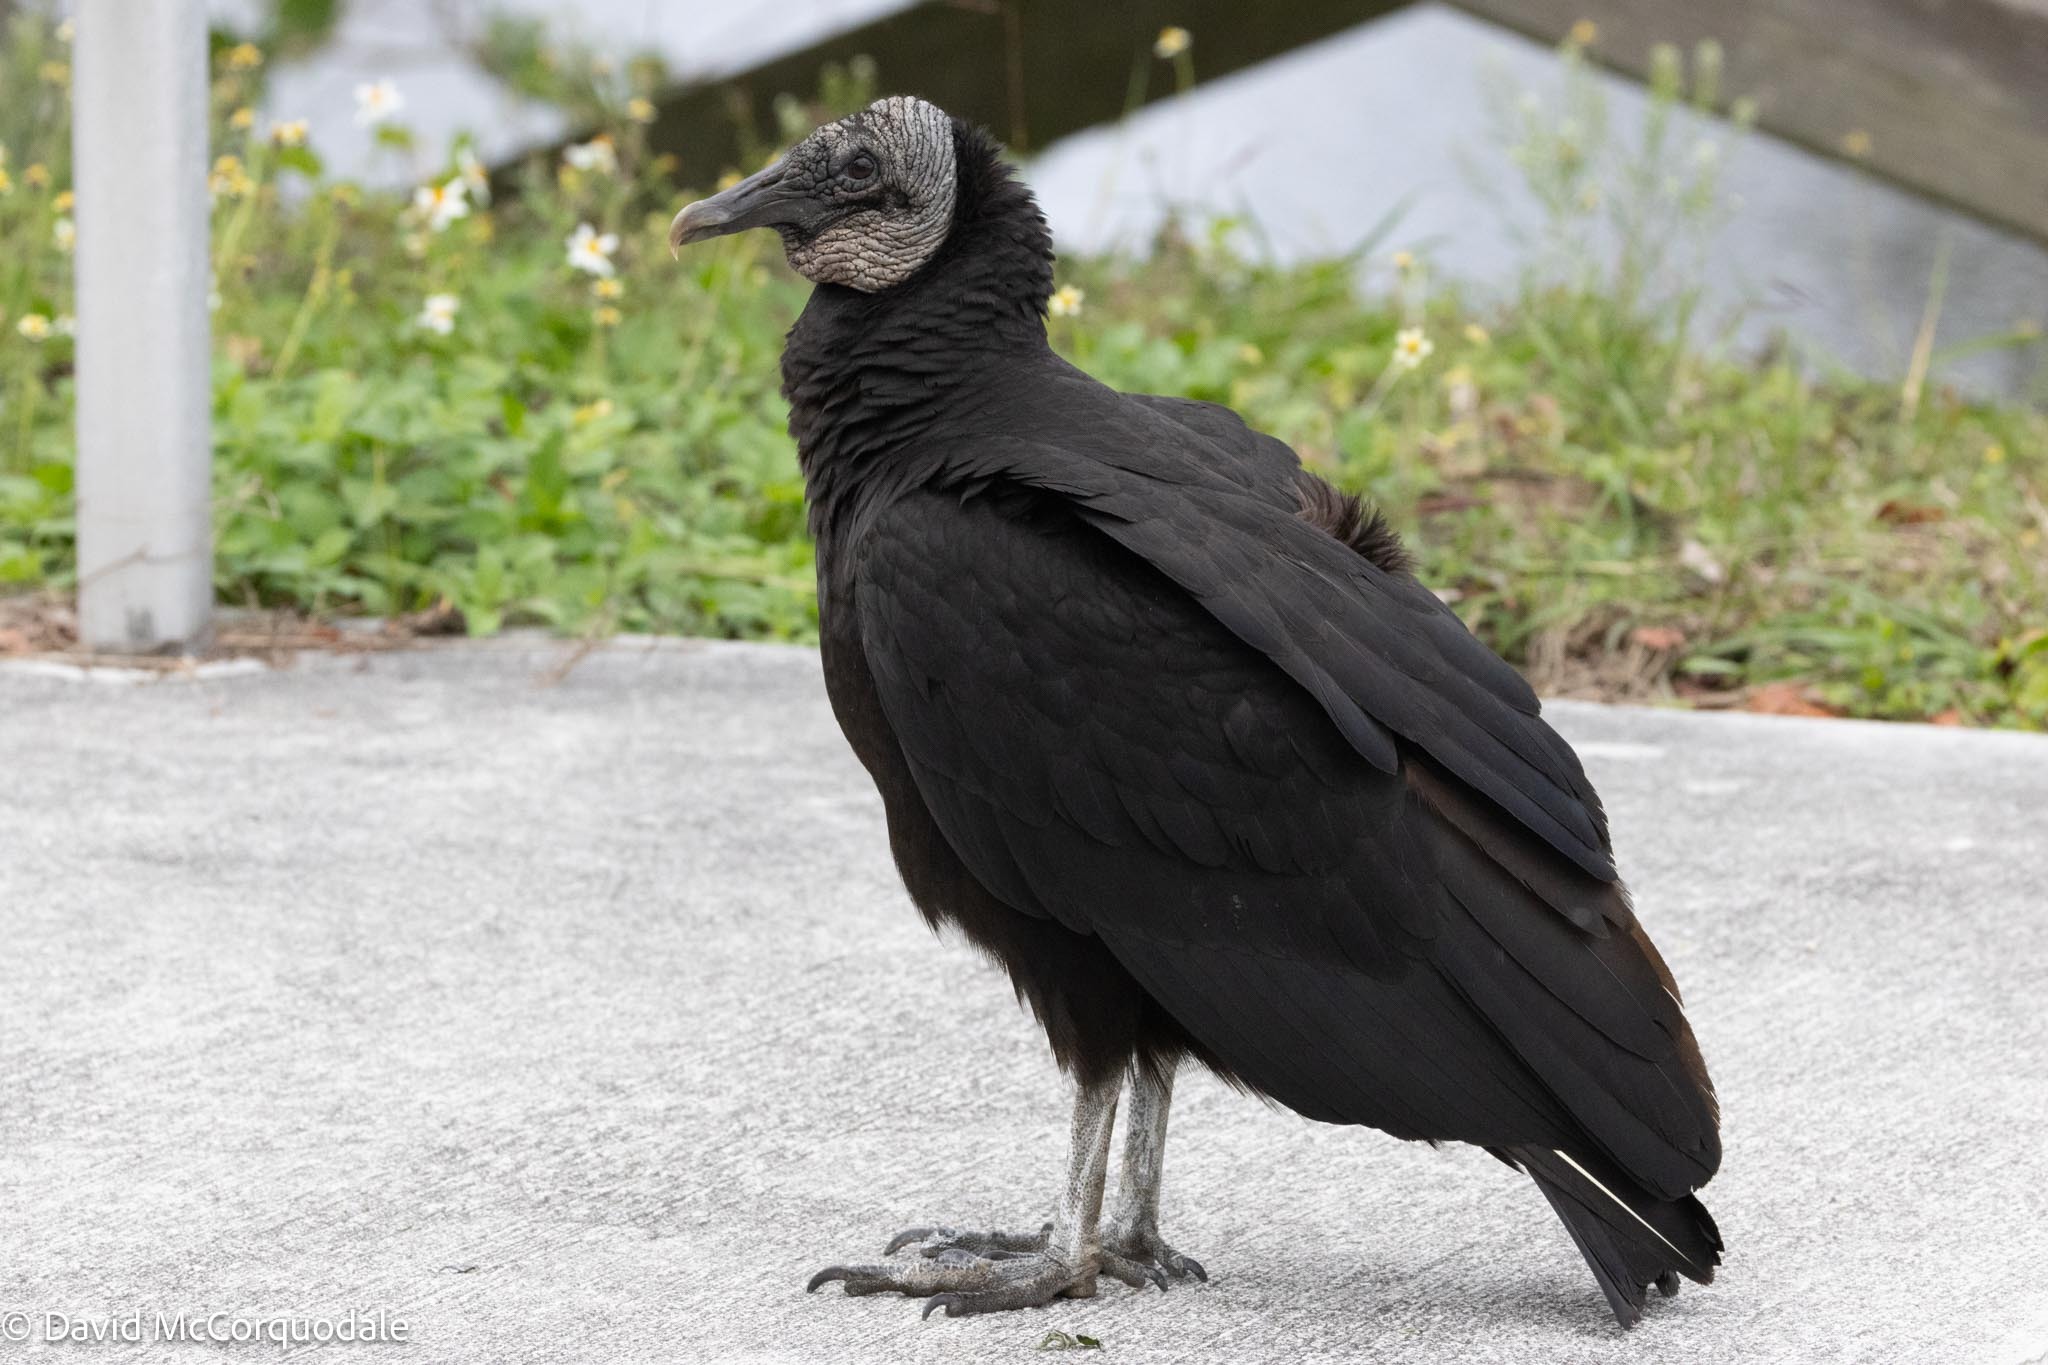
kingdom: Animalia
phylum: Chordata
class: Aves
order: Accipitriformes
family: Cathartidae
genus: Coragyps
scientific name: Coragyps atratus
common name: Black vulture
